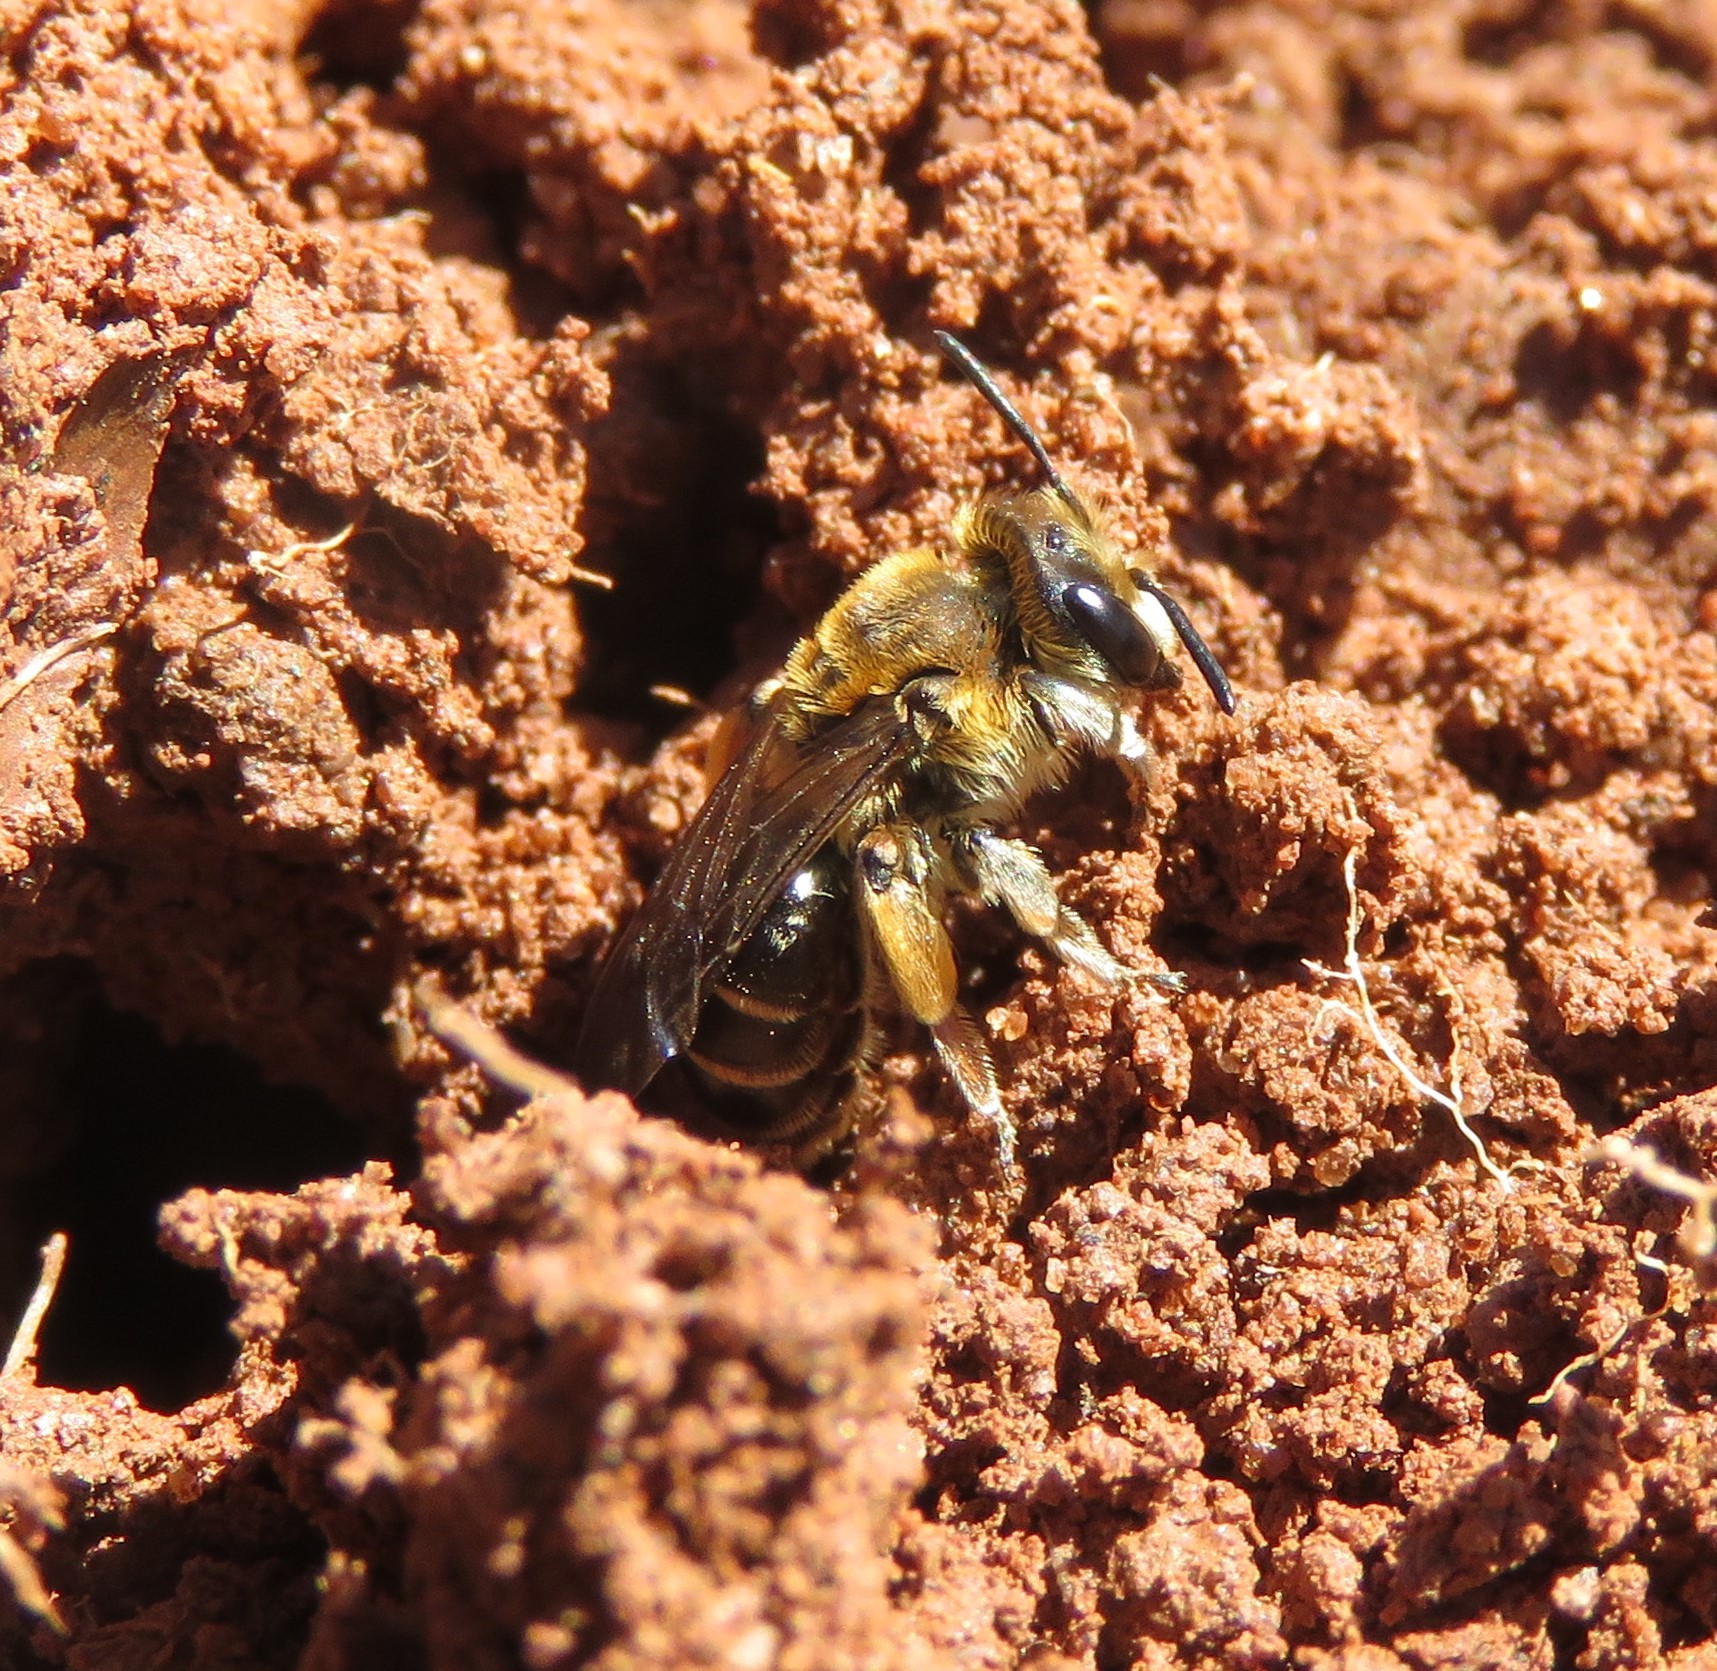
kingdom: Animalia
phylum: Arthropoda
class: Insecta
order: Hymenoptera
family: Andrenidae
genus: Andrena
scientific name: Andrena wilkella
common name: Wilke's mining bee
